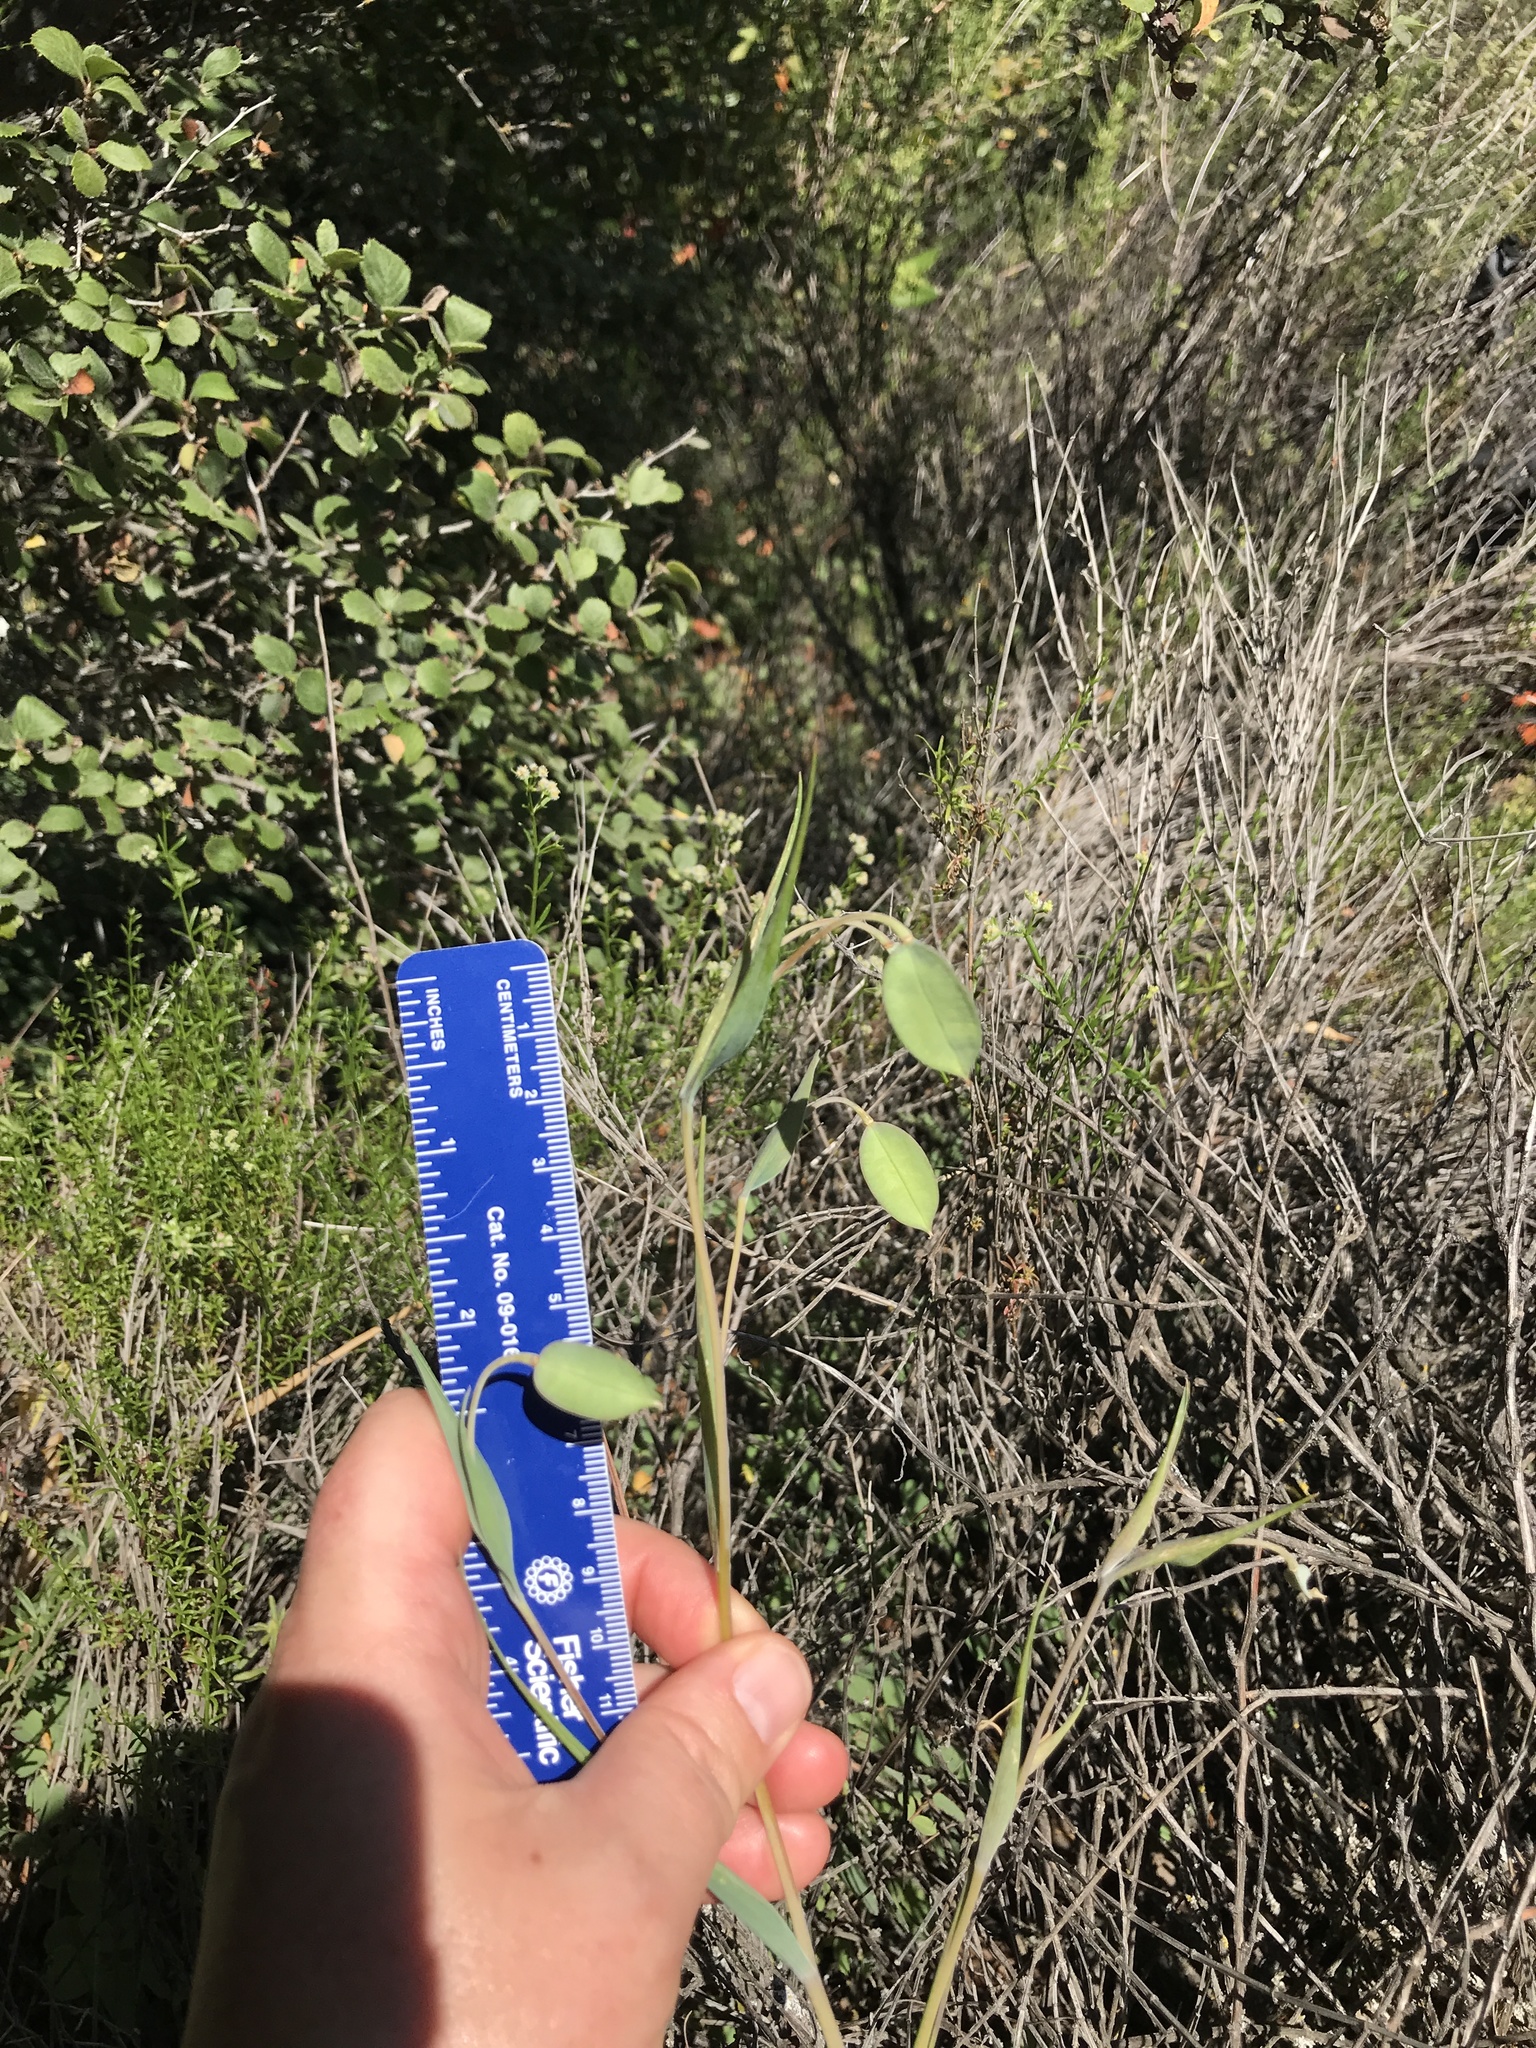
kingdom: Plantae
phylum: Tracheophyta
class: Liliopsida
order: Liliales
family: Liliaceae
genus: Calochortus
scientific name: Calochortus albus
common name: Fairy-lantern
